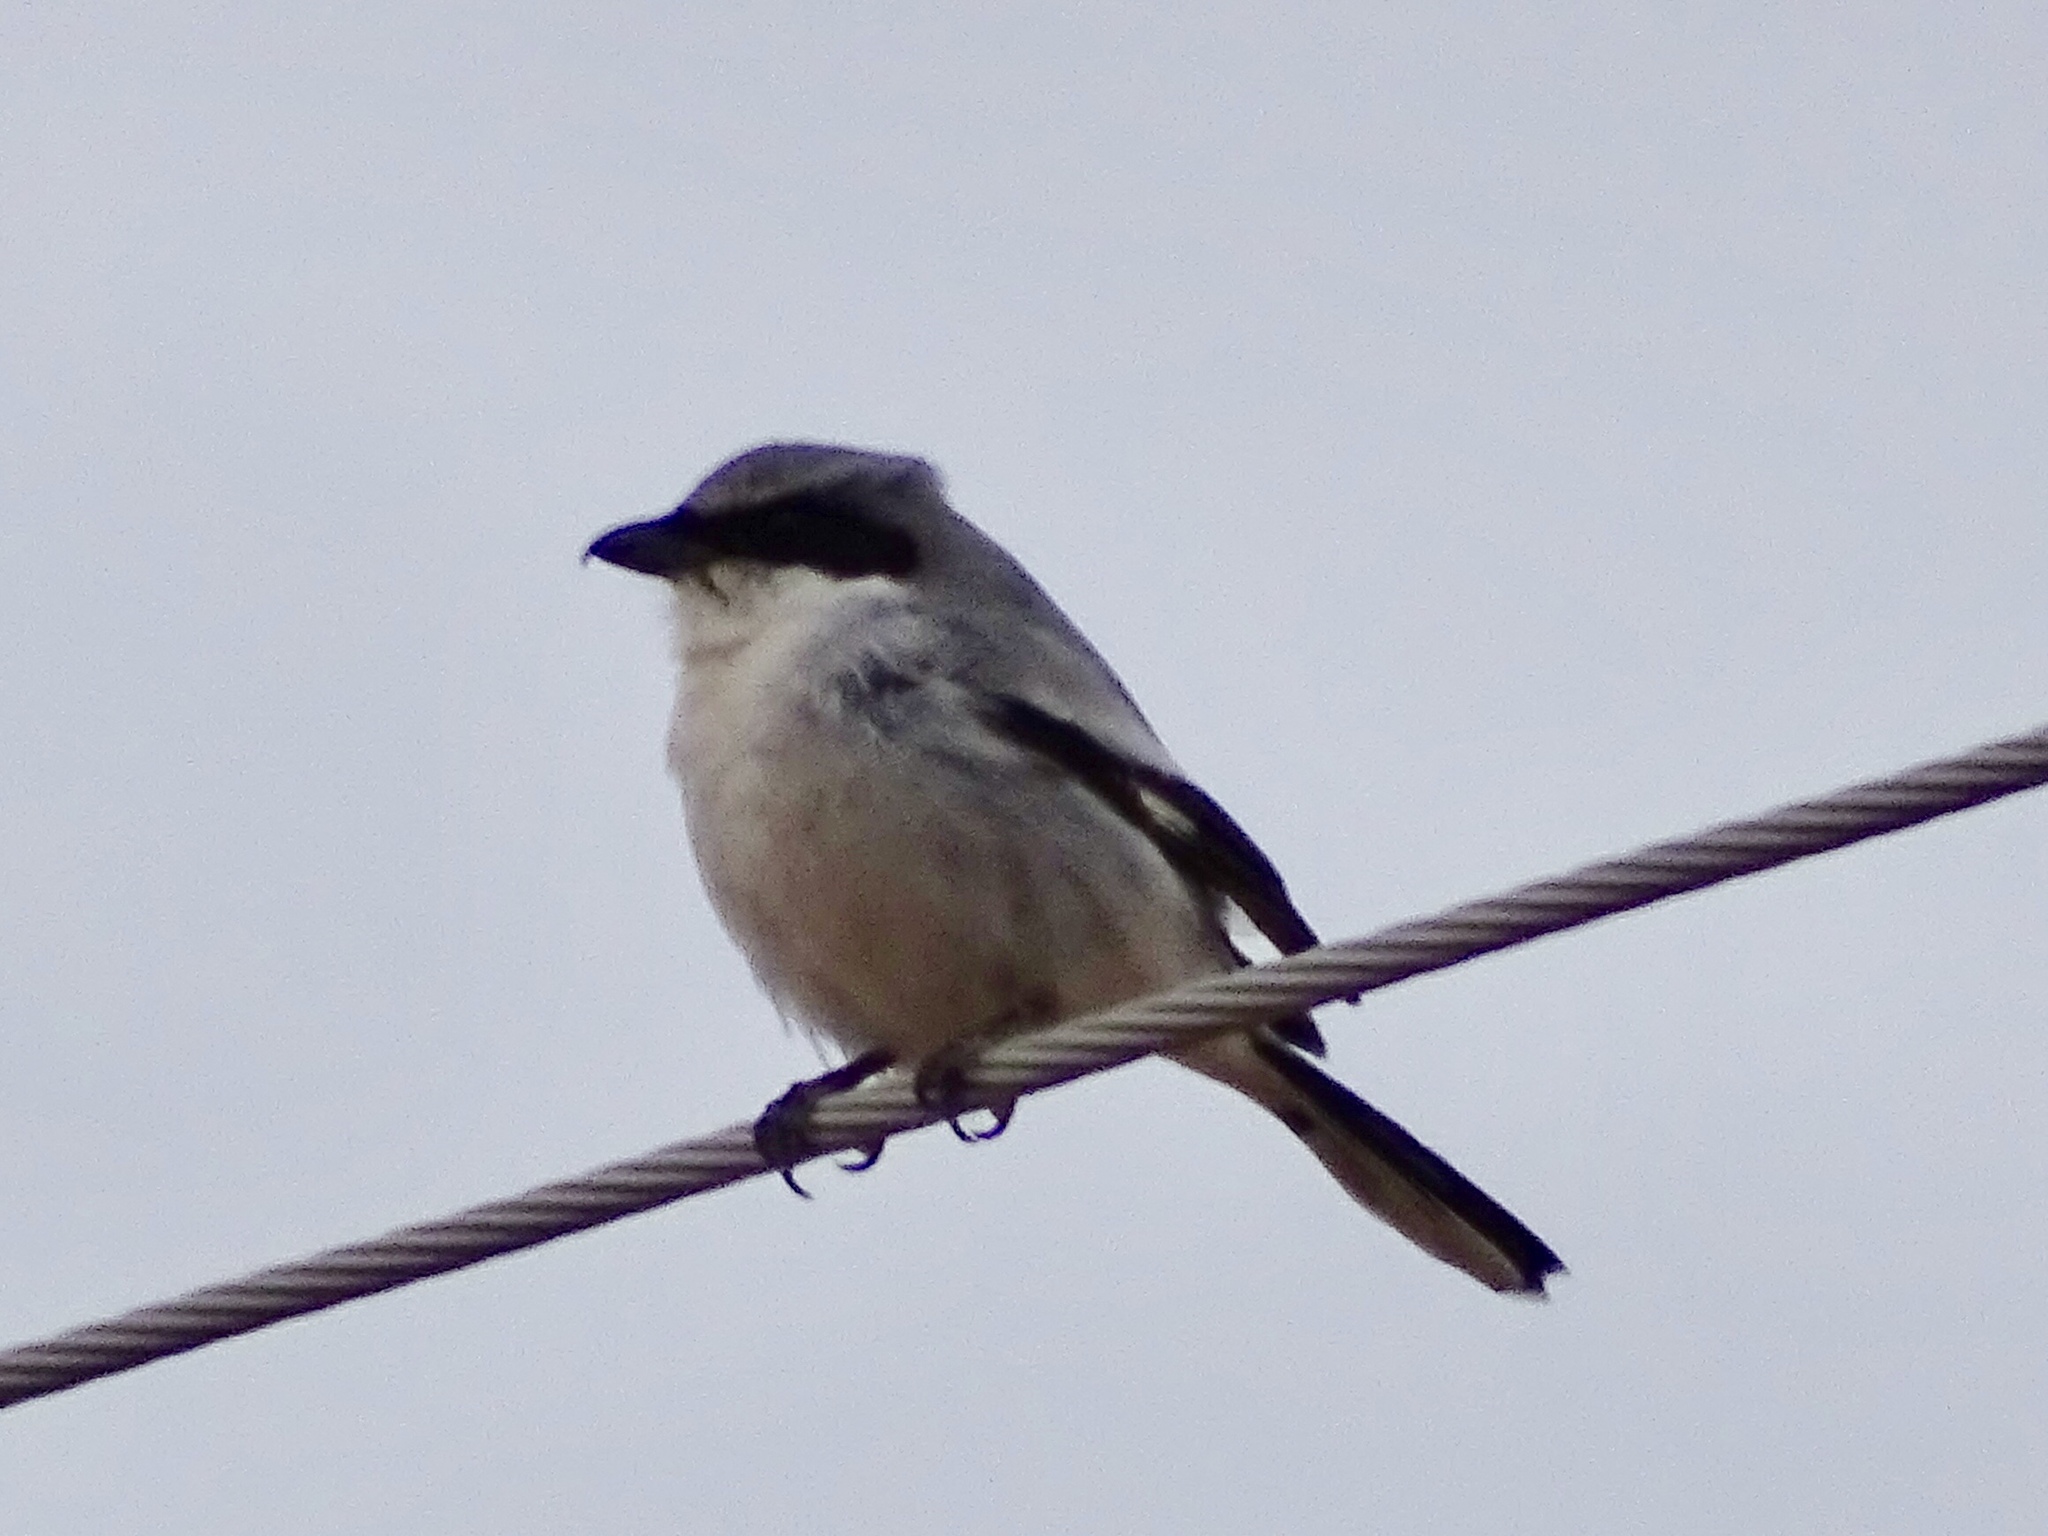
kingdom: Animalia
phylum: Chordata
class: Aves
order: Passeriformes
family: Laniidae
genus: Lanius
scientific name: Lanius ludovicianus
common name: Loggerhead shrike
